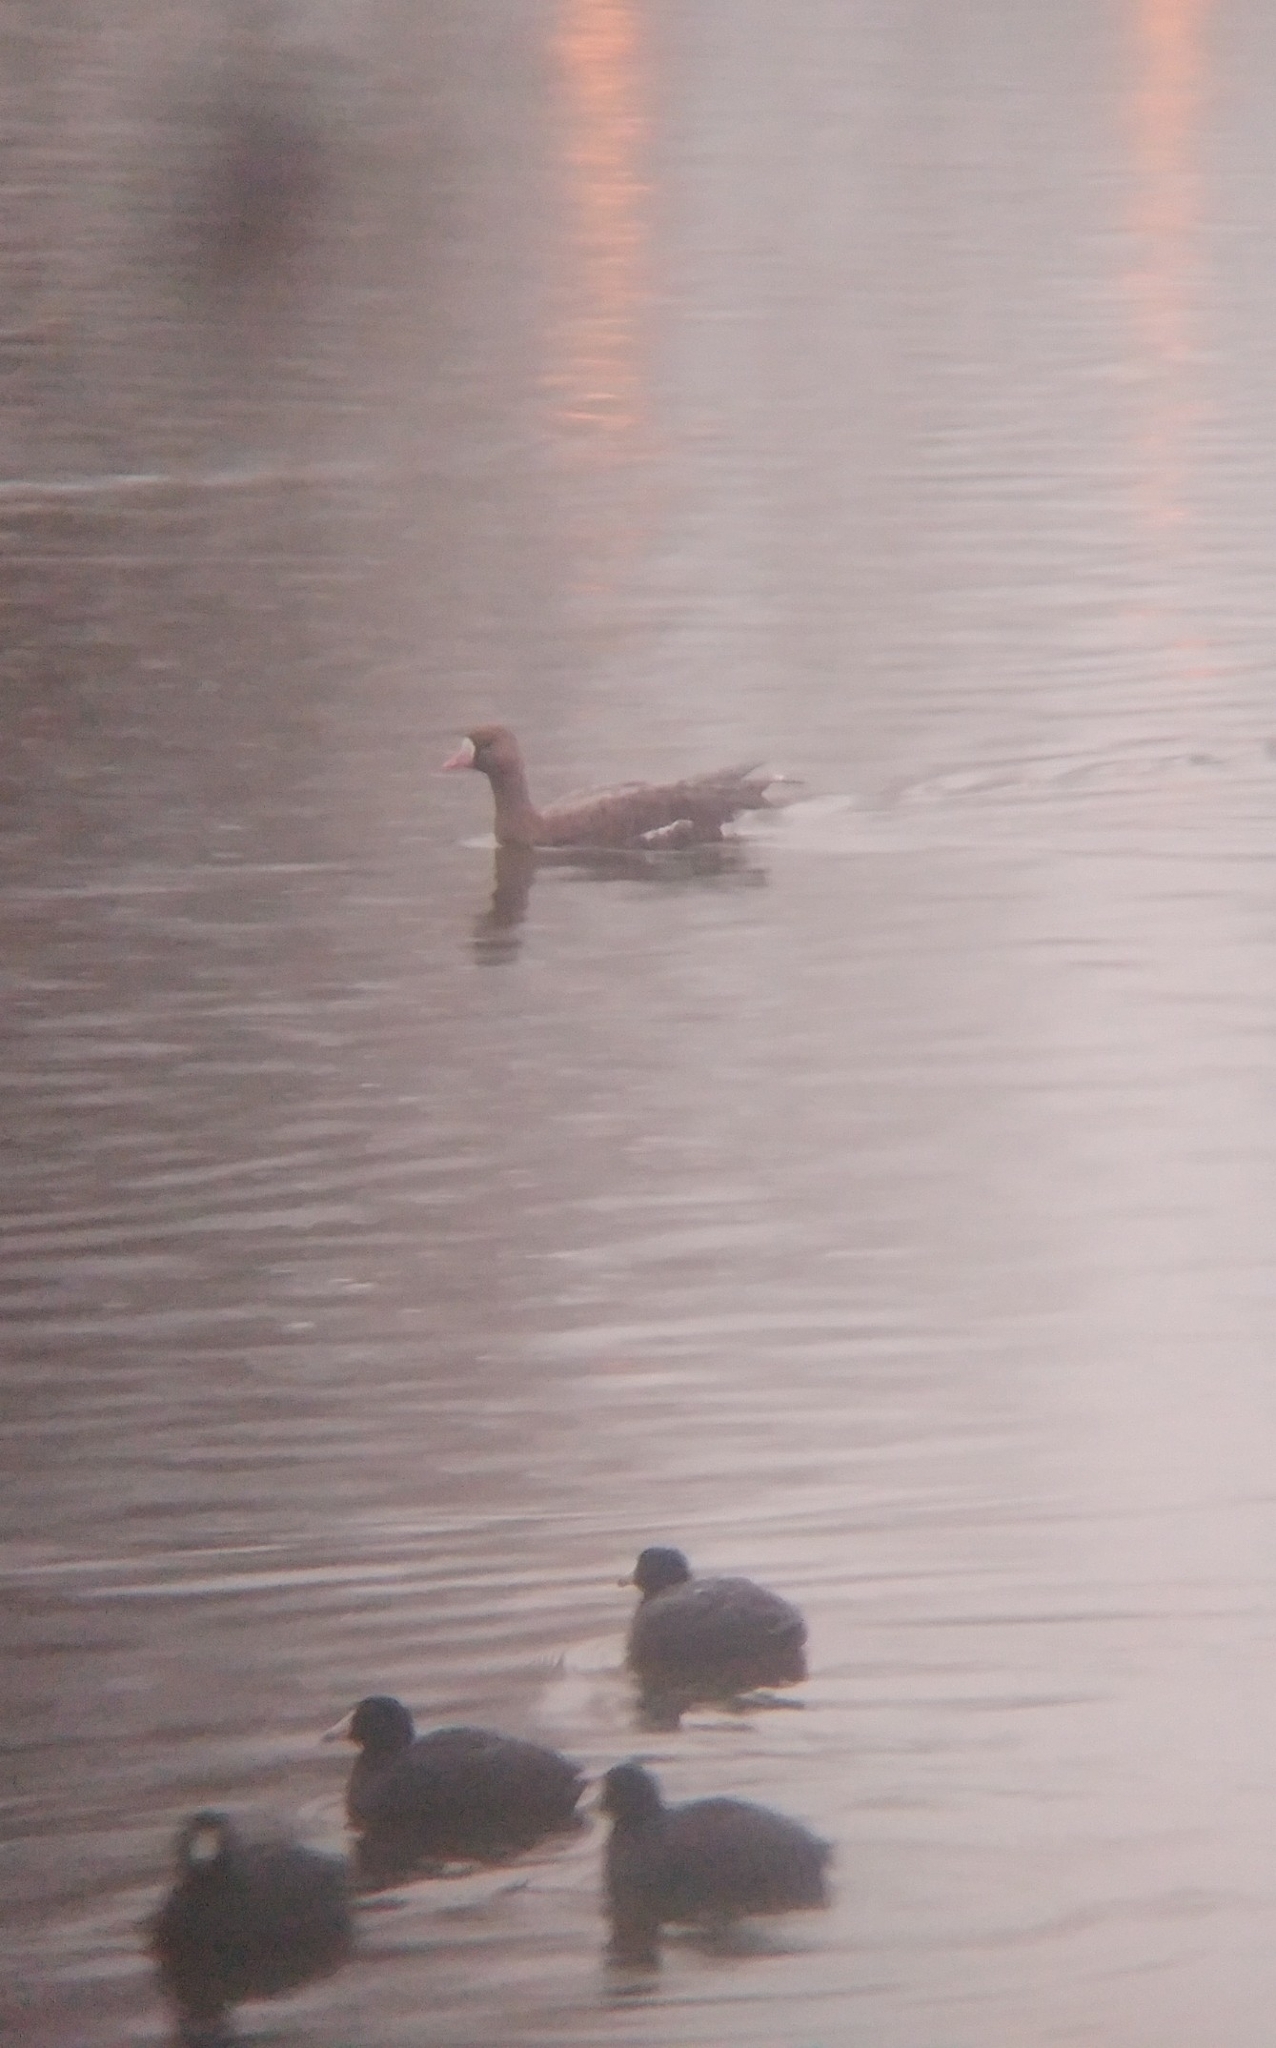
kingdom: Animalia
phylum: Chordata
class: Aves
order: Anseriformes
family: Anatidae
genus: Anser
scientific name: Anser albifrons
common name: Greater white-fronted goose
